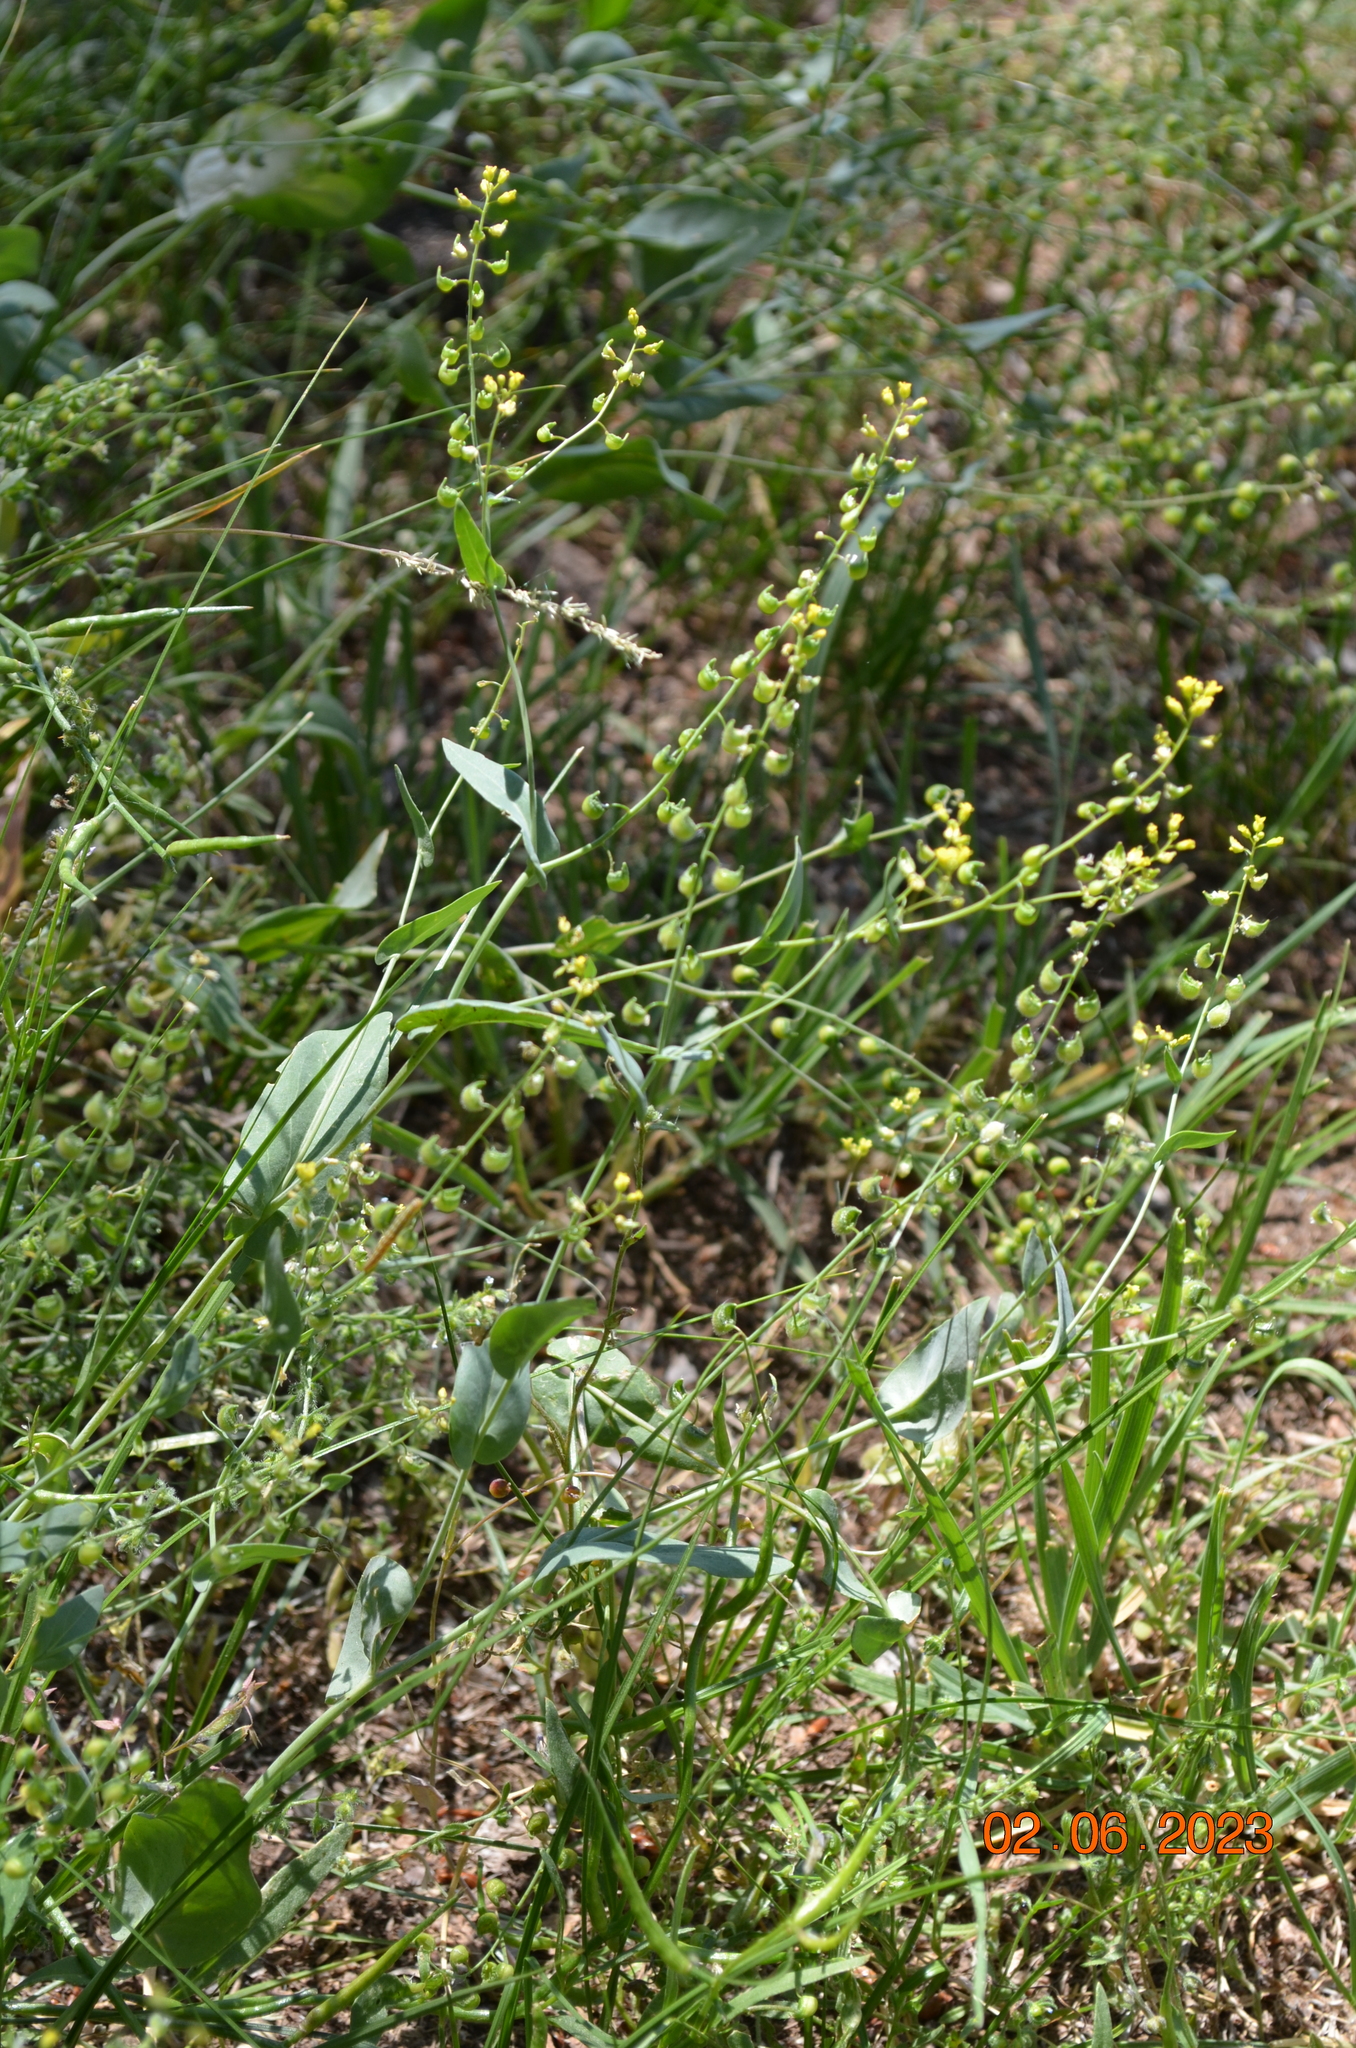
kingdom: Plantae
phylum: Tracheophyta
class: Magnoliopsida
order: Brassicales
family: Brassicaceae
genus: Isatis
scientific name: Isatis gymnocarpa
